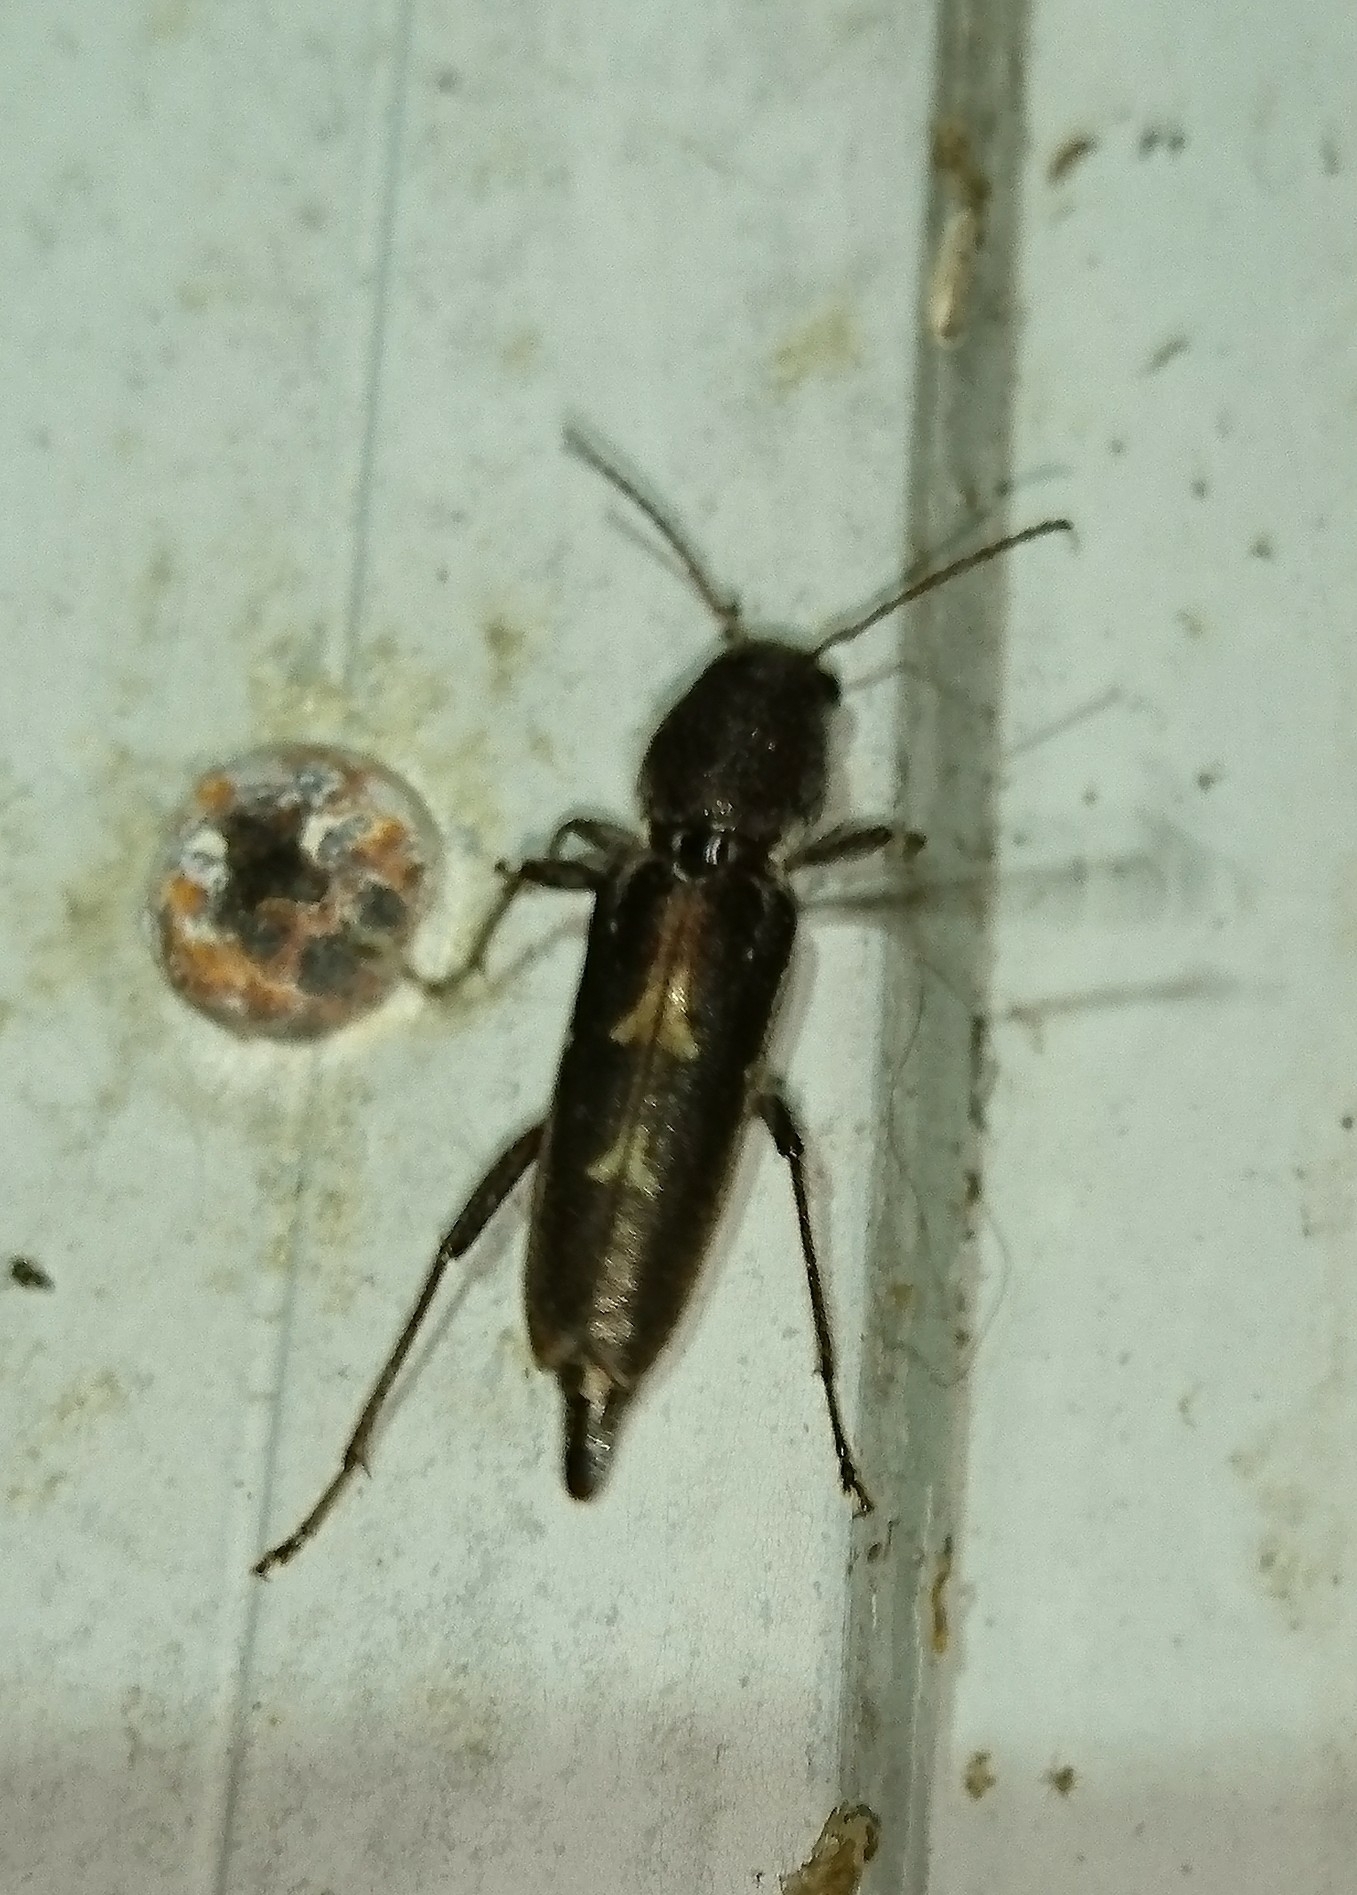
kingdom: Animalia
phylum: Arthropoda
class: Insecta
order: Coleoptera
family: Cerambycidae
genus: Xylotrechus
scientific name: Xylotrechus sagittatus
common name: Arrowhead borer
